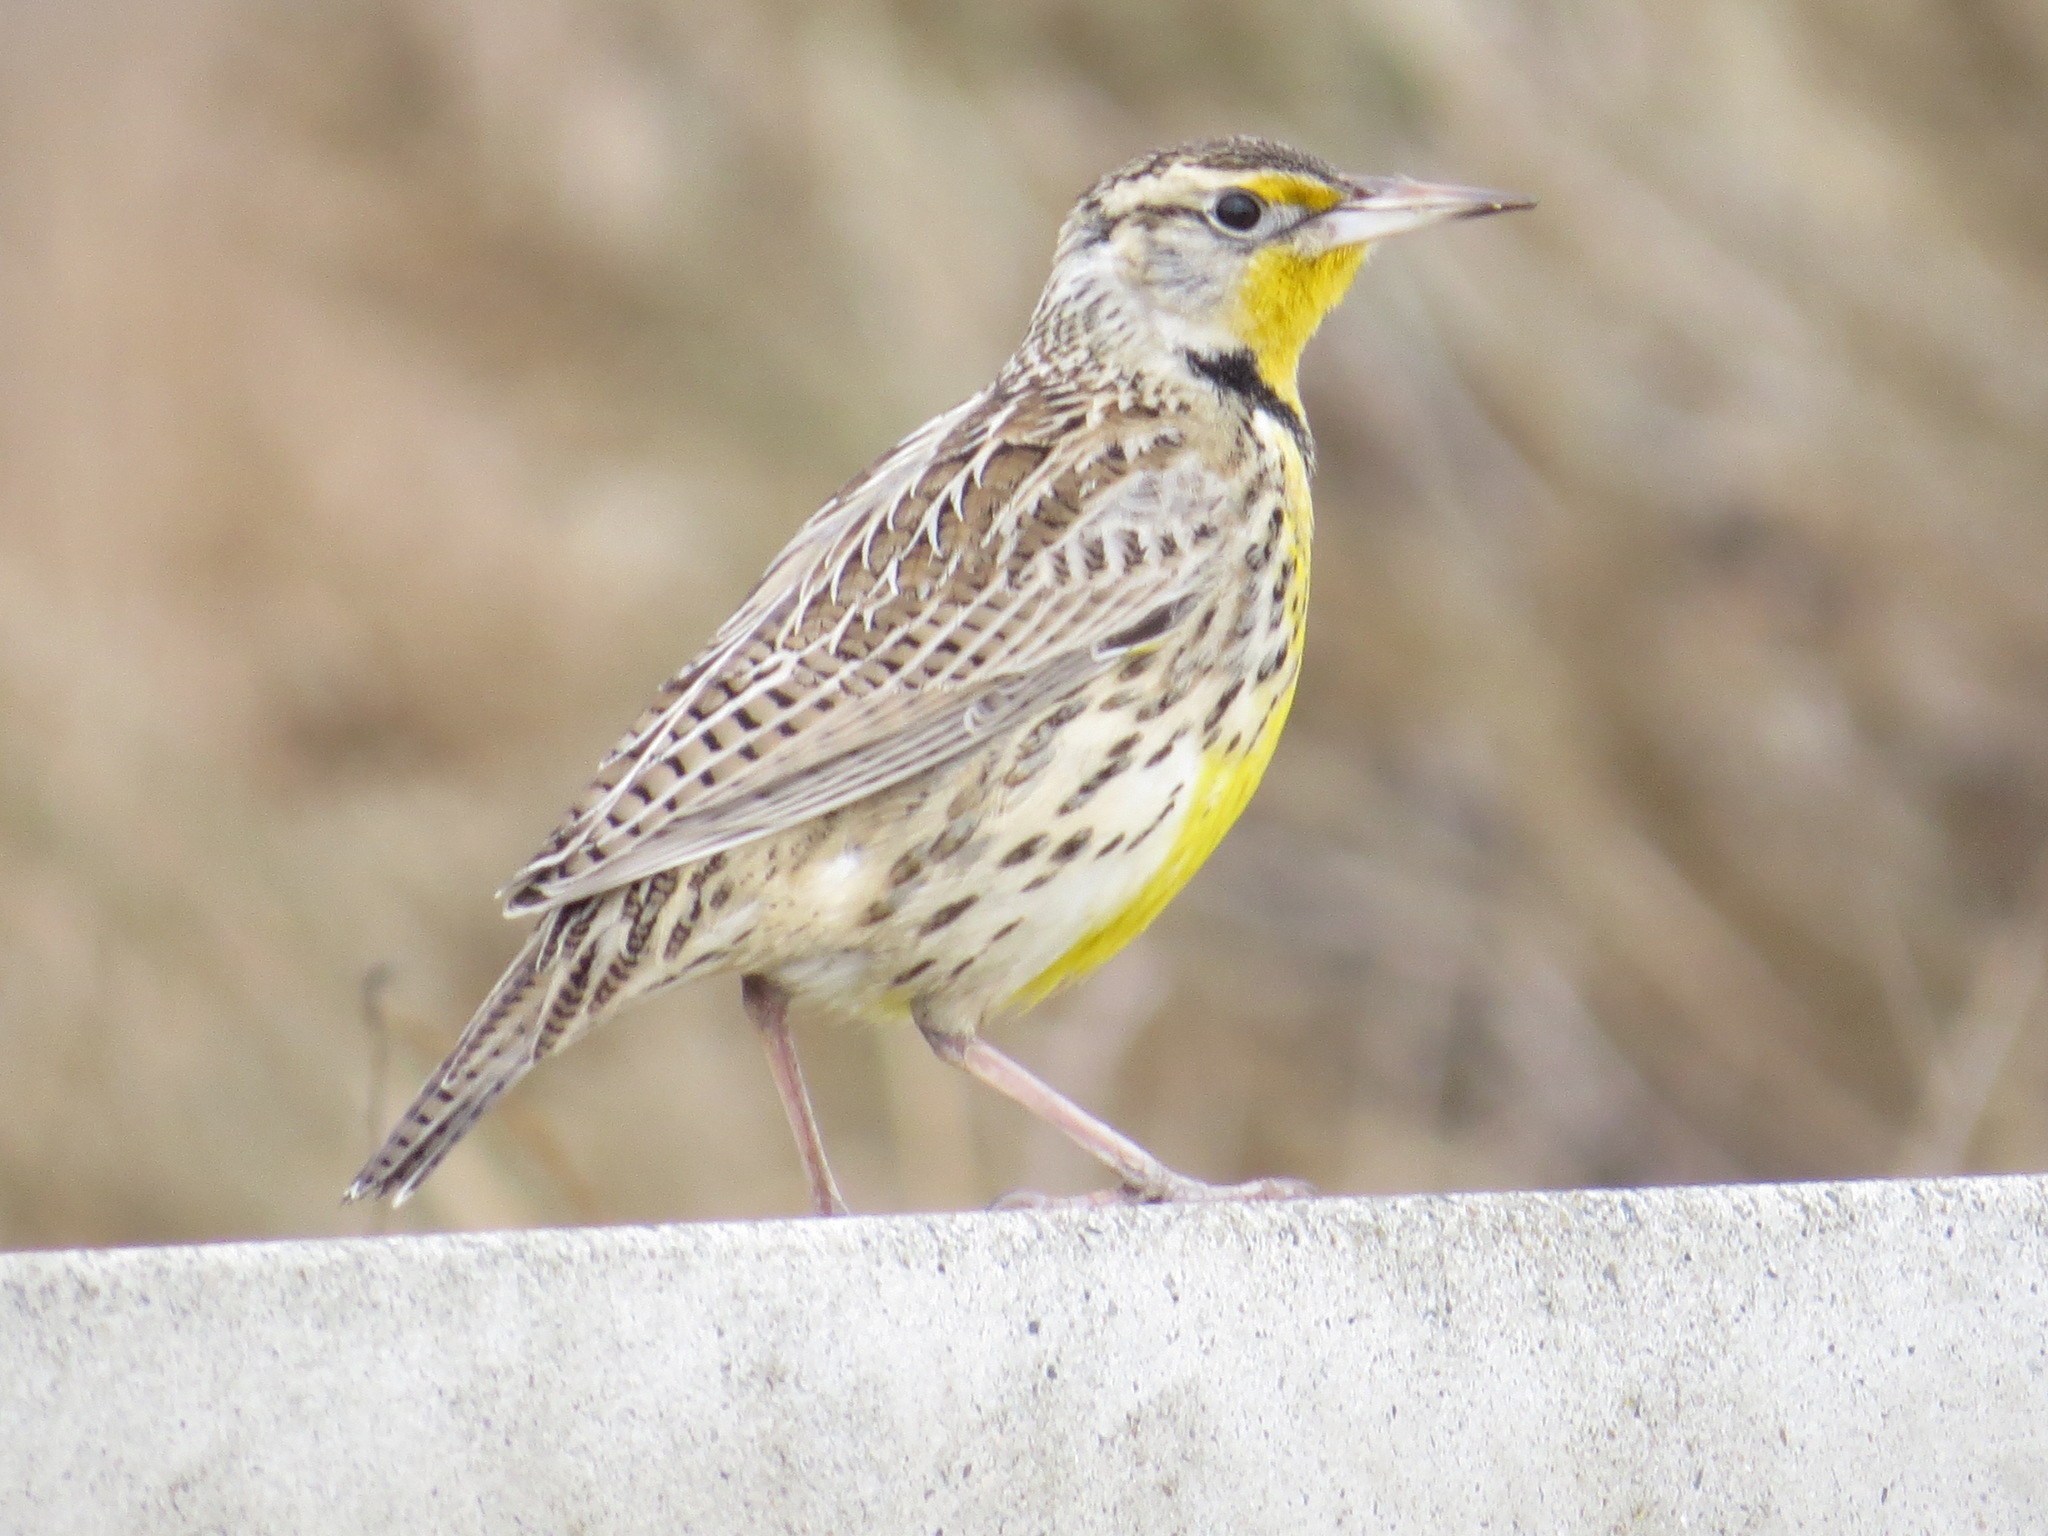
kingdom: Animalia
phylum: Chordata
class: Aves
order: Passeriformes
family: Icteridae
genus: Sturnella
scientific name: Sturnella neglecta
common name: Western meadowlark
